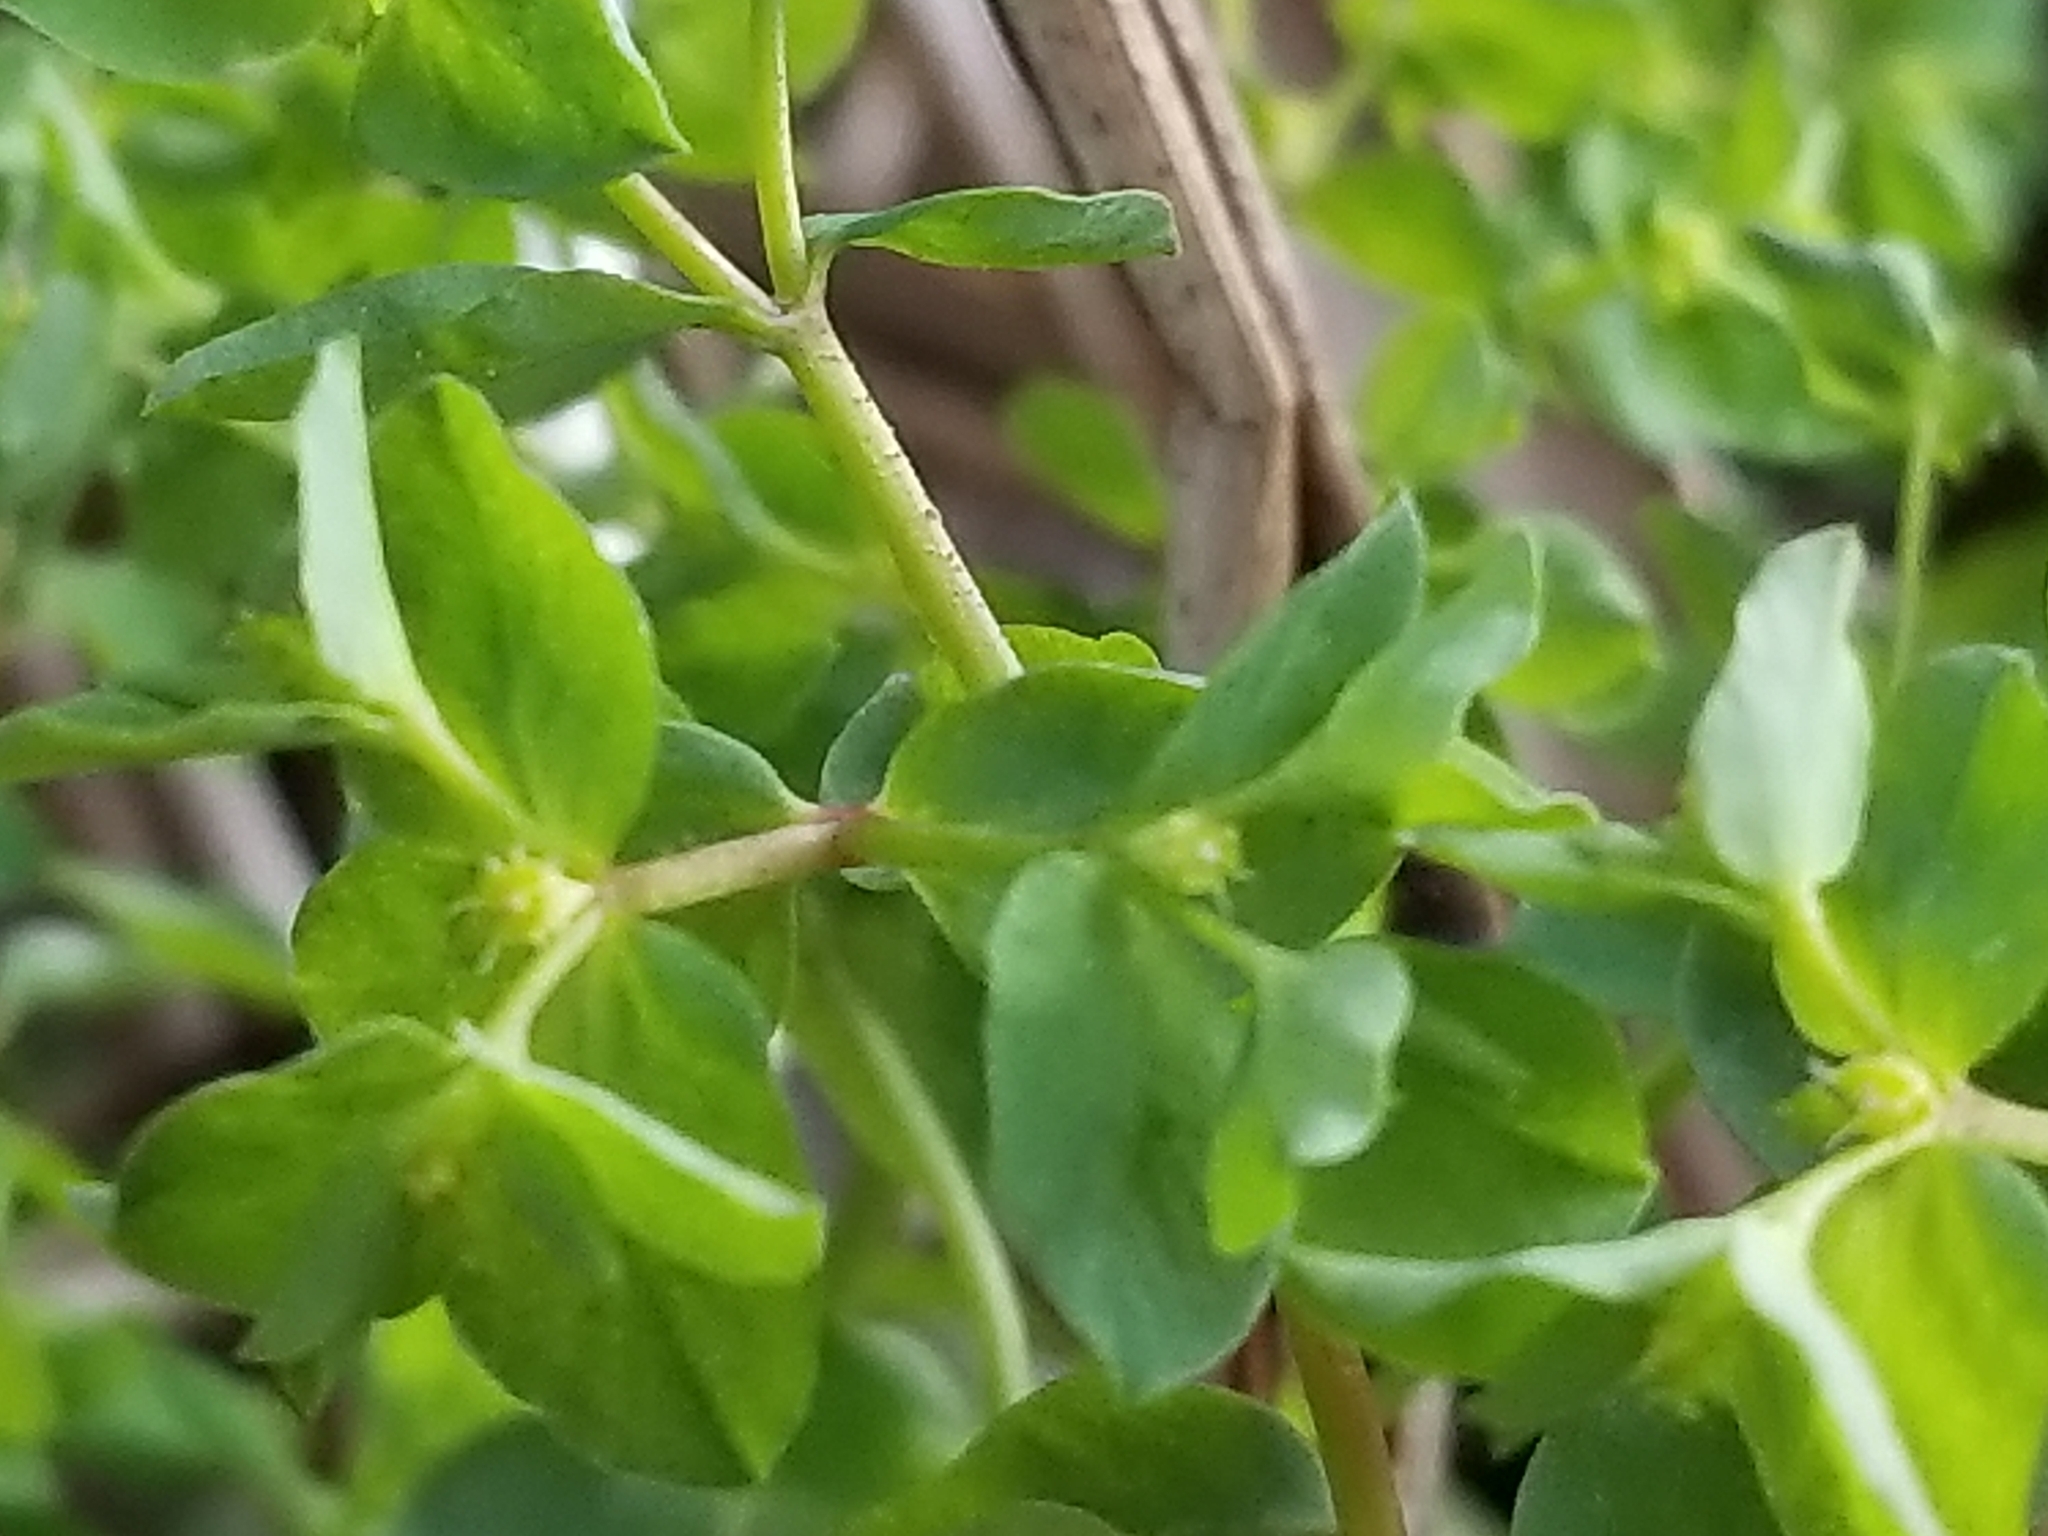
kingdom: Plantae
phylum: Tracheophyta
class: Magnoliopsida
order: Malpighiales
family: Euphorbiaceae
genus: Euphorbia
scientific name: Euphorbia peplus
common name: Petty spurge
